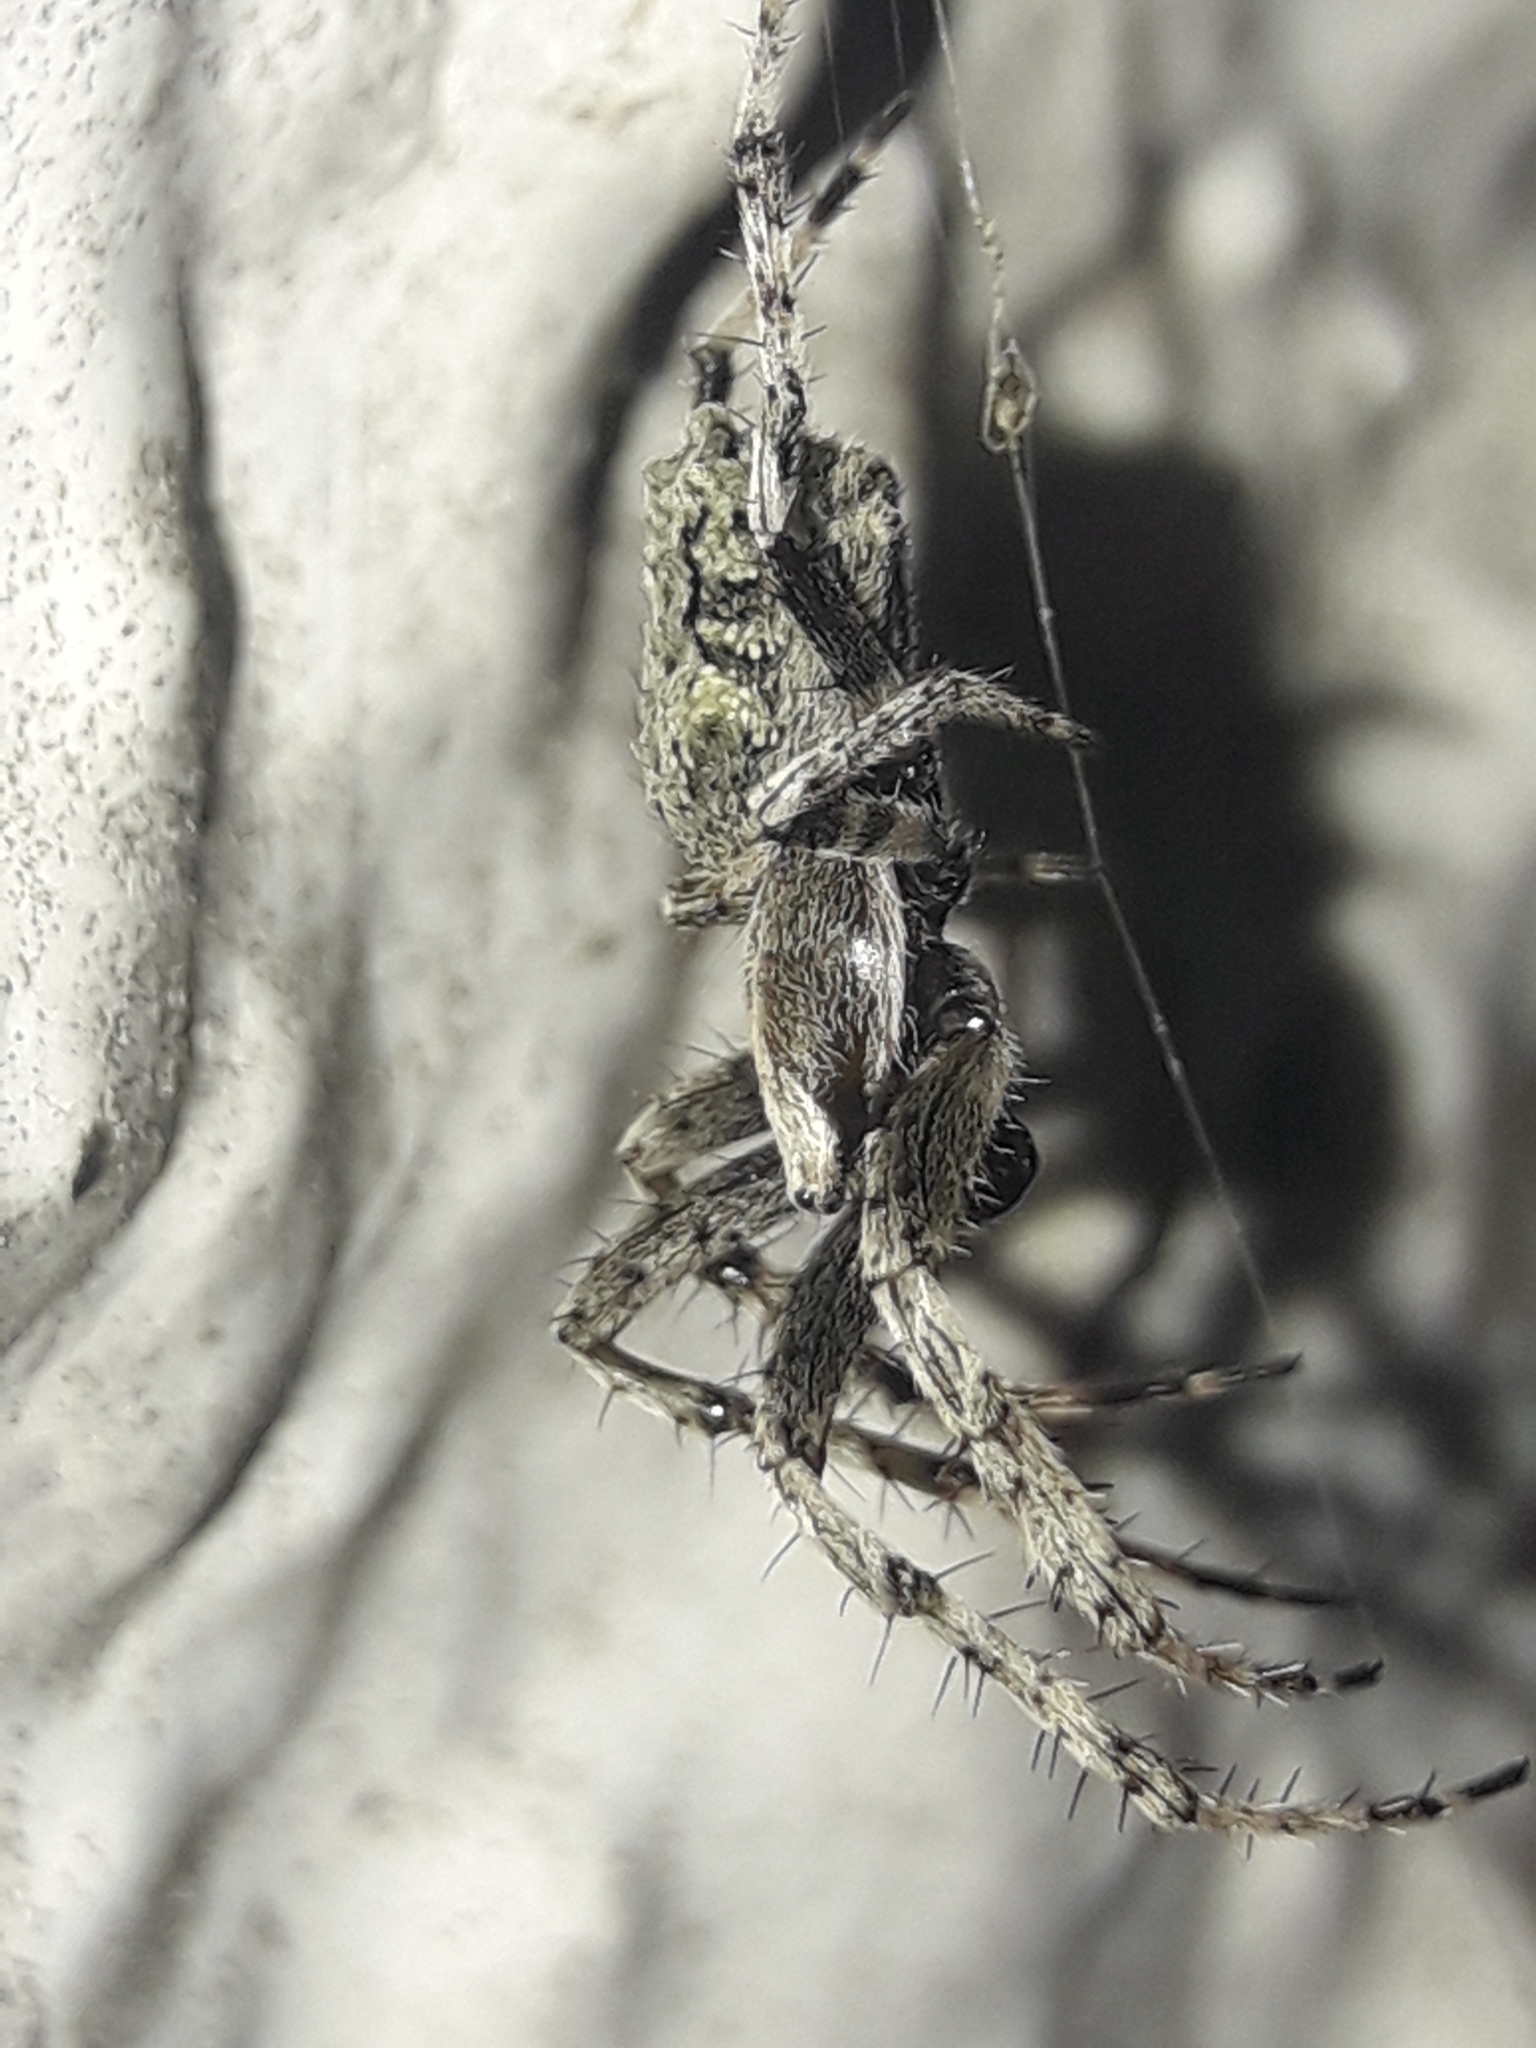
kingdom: Animalia
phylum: Arthropoda
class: Arachnida
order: Araneae
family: Araneidae
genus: Eriophora
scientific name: Eriophora pustulosa
